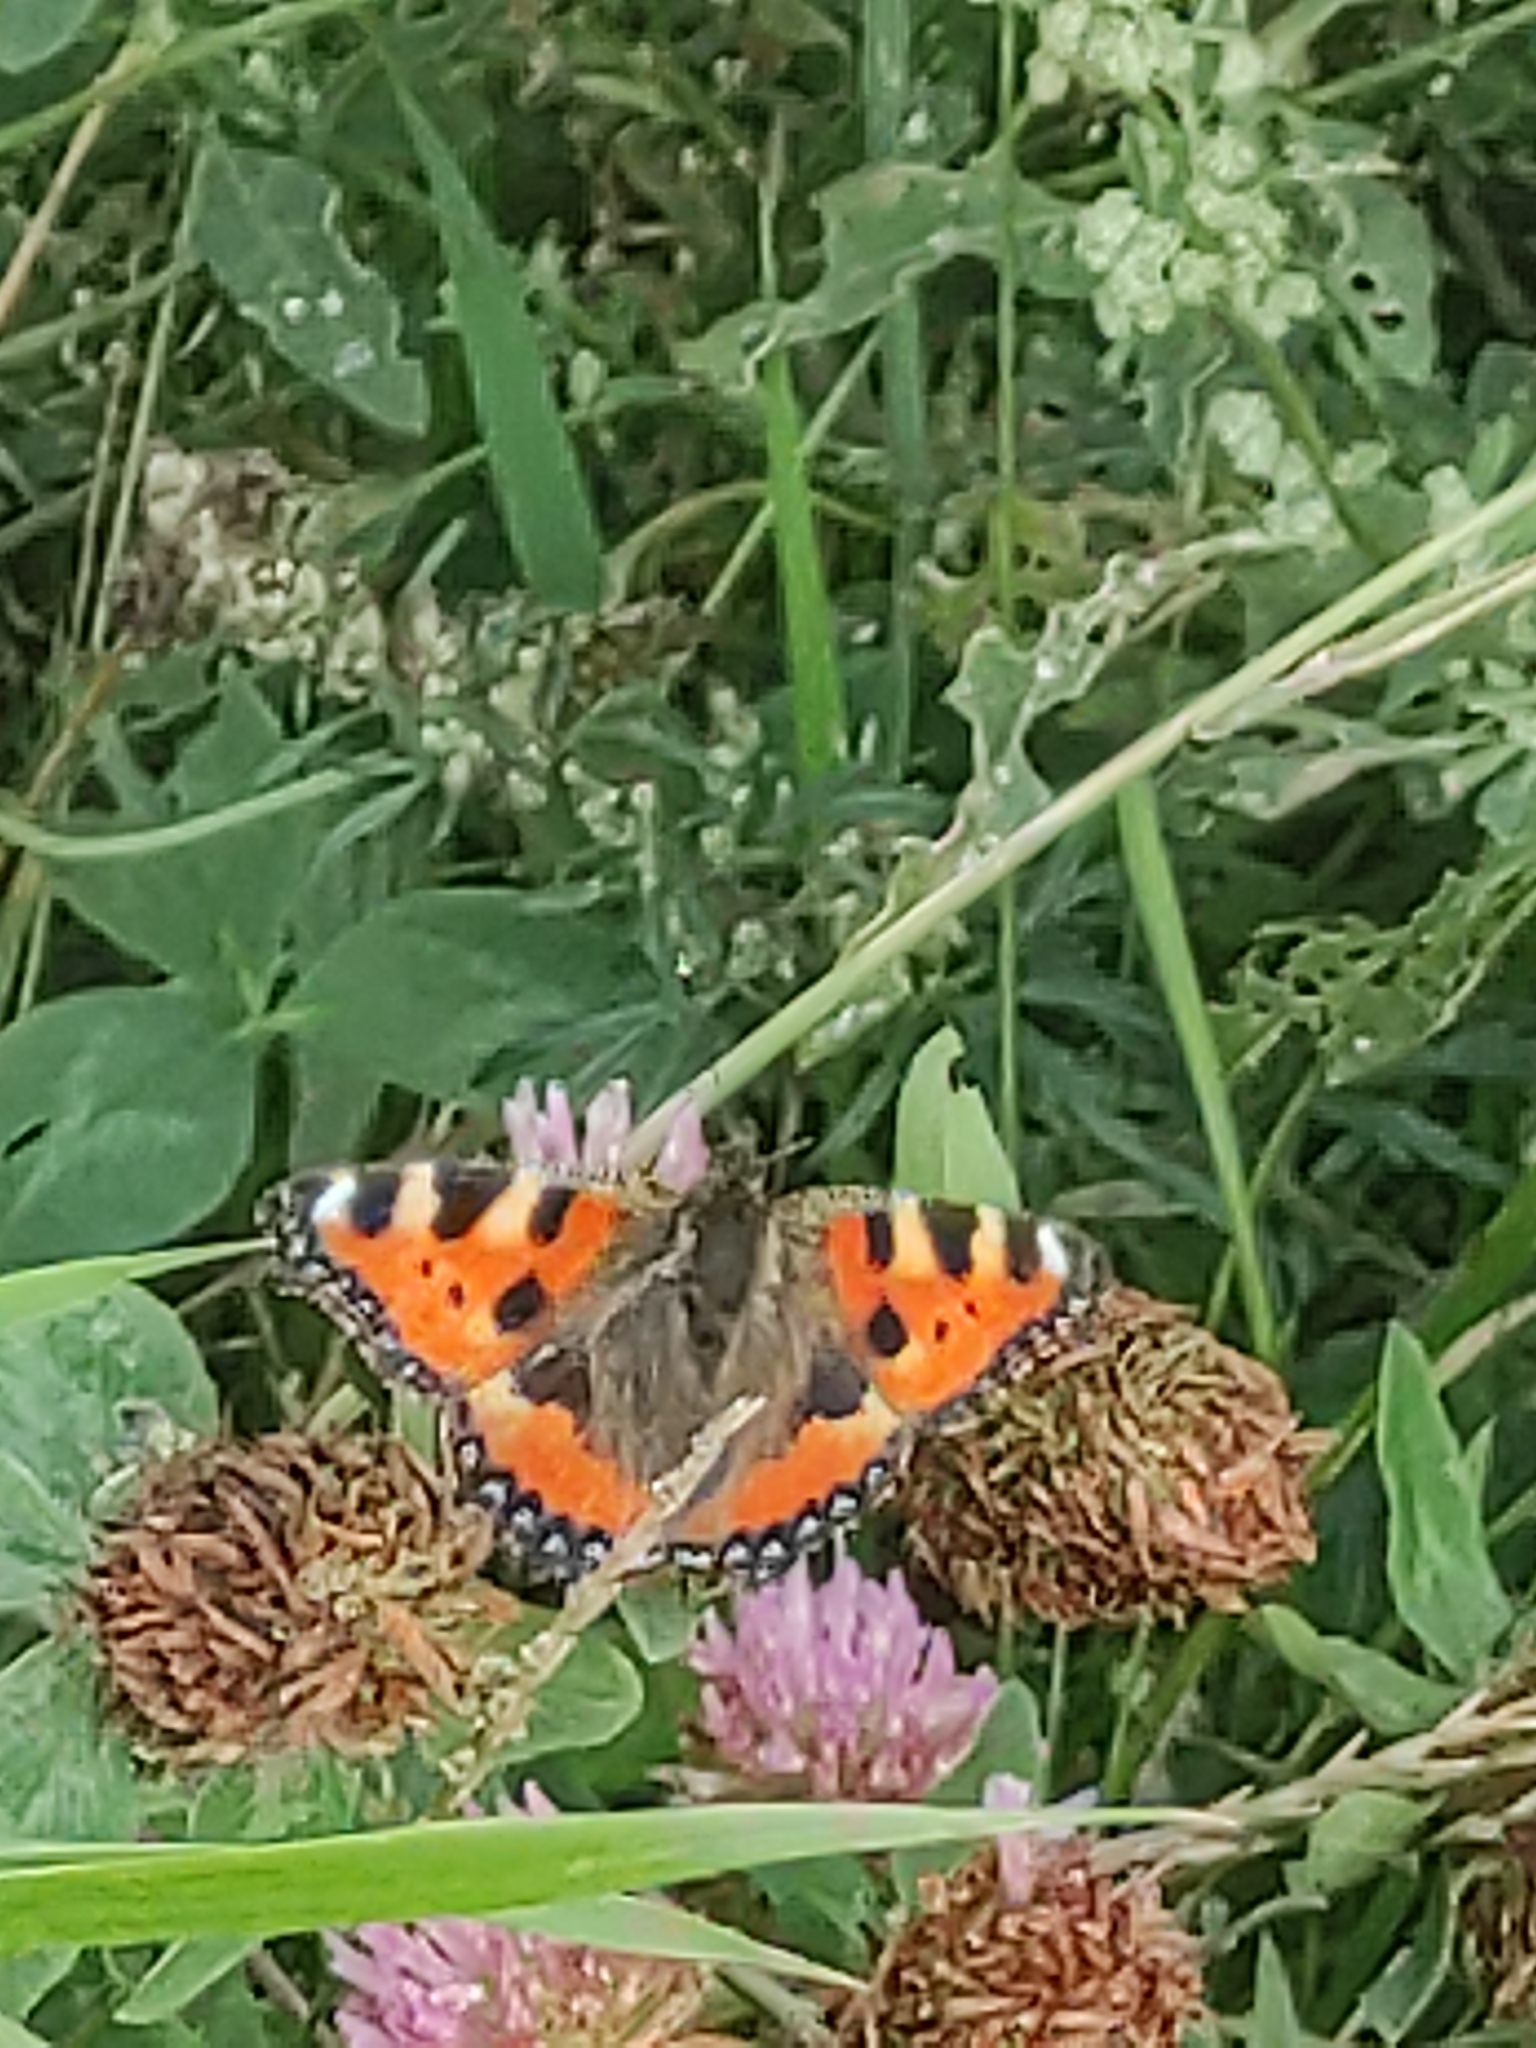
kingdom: Animalia
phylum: Arthropoda
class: Insecta
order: Lepidoptera
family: Nymphalidae
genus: Aglais
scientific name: Aglais urticae
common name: Small tortoiseshell
